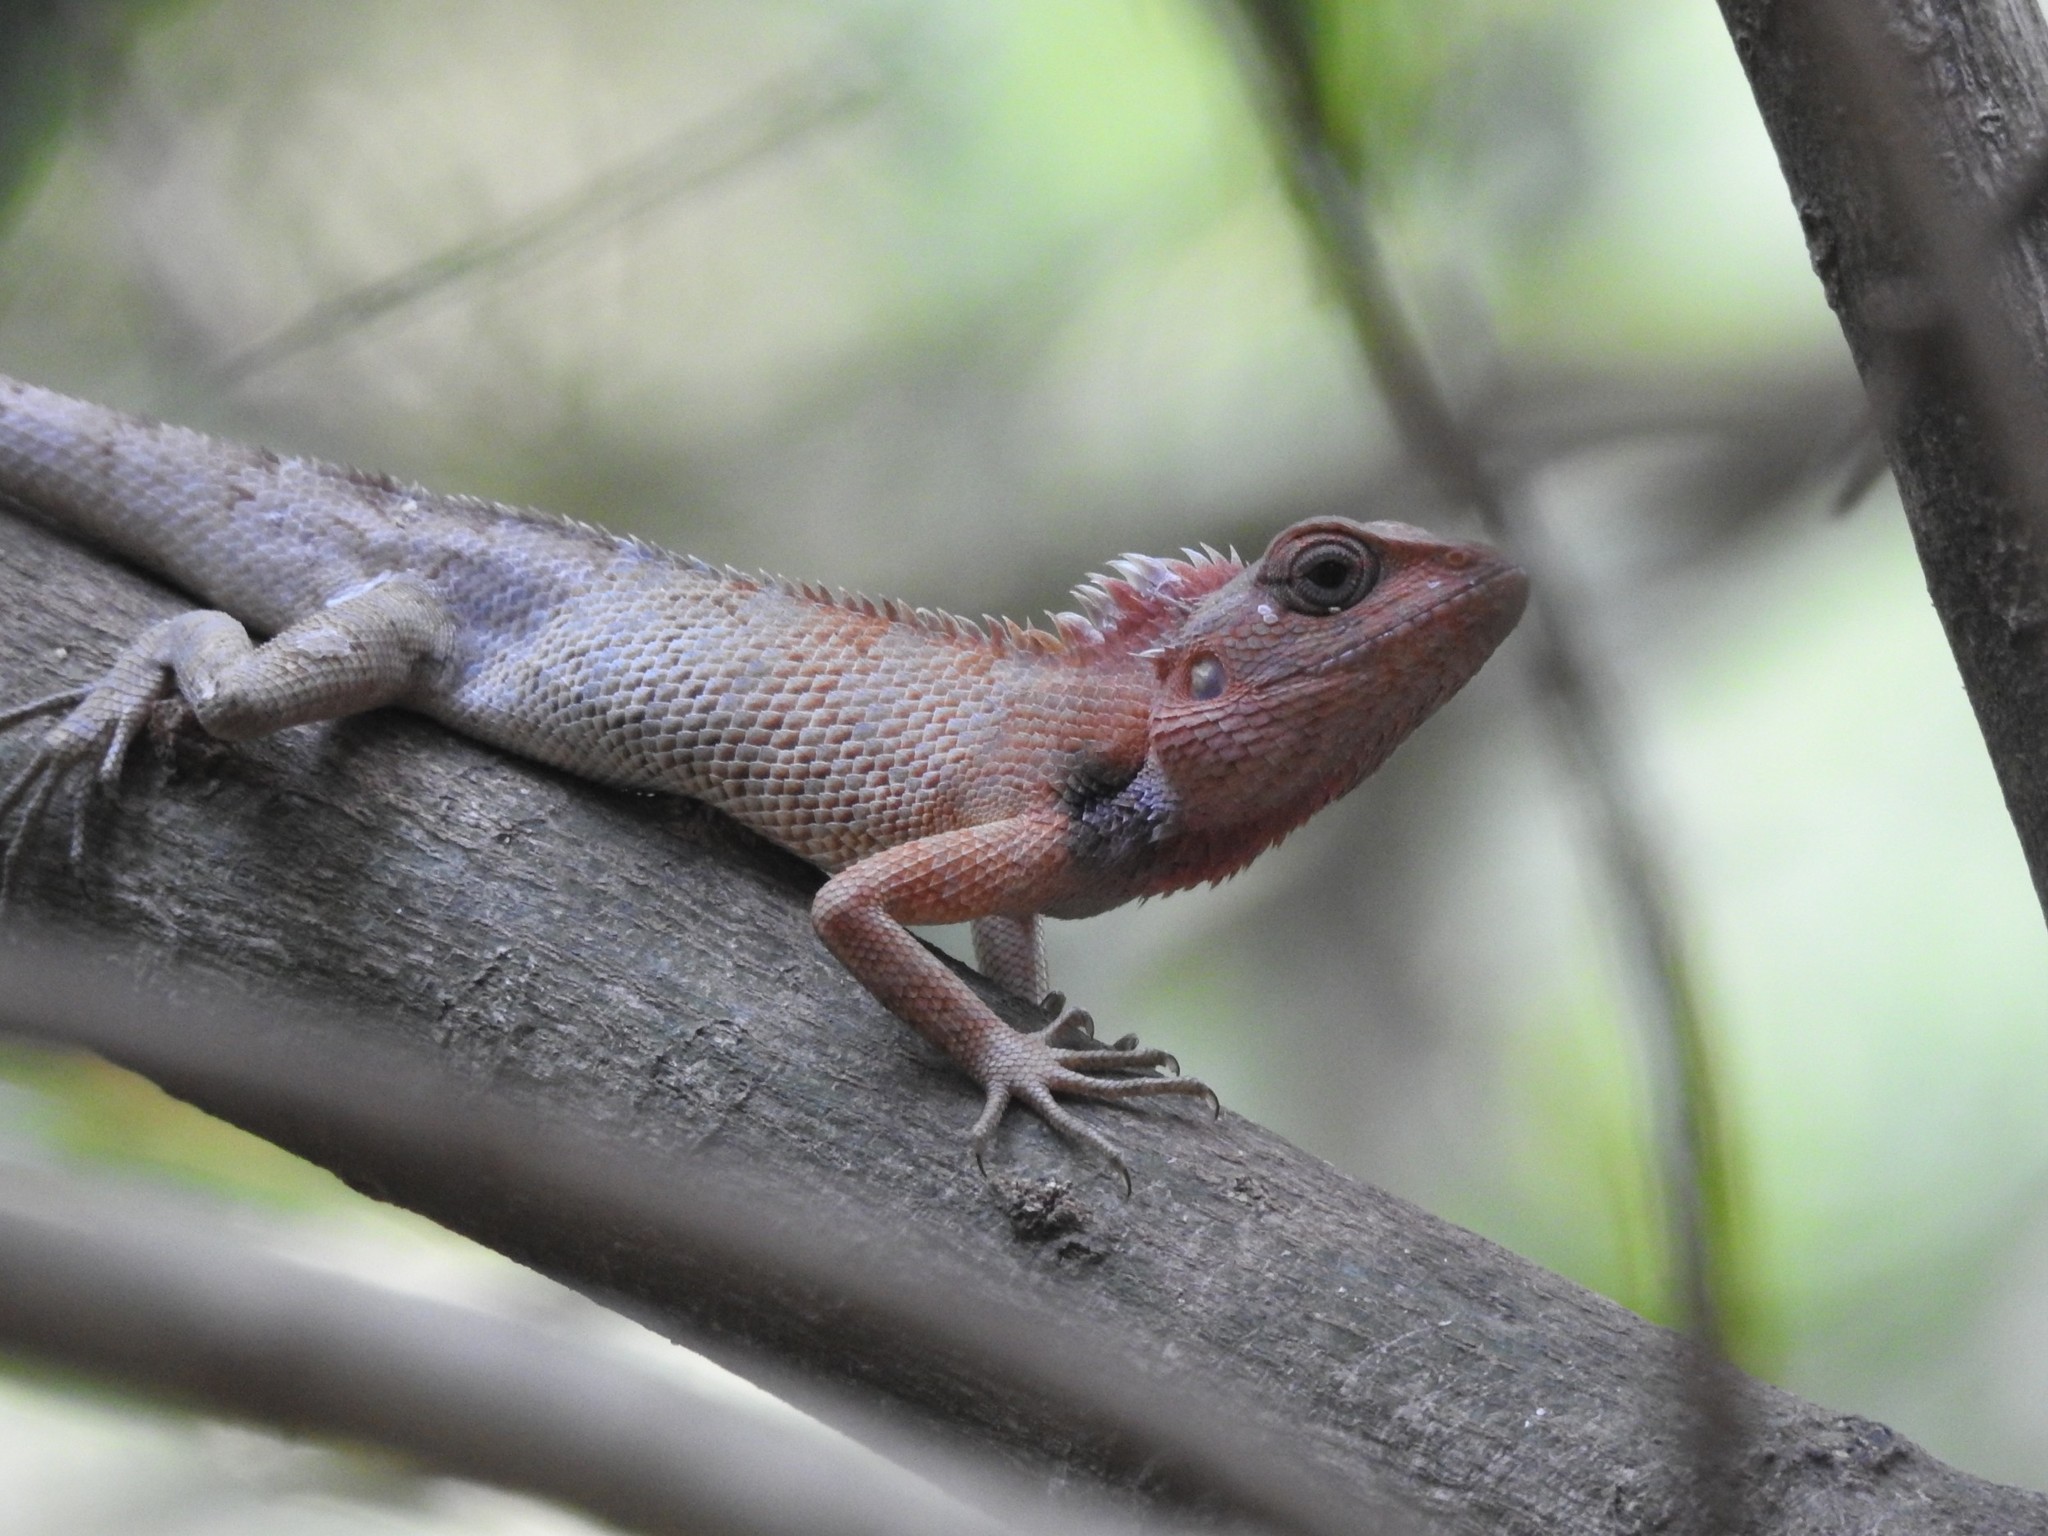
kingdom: Animalia
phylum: Chordata
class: Squamata
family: Agamidae
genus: Calotes
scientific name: Calotes versicolor
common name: Oriental garden lizard
